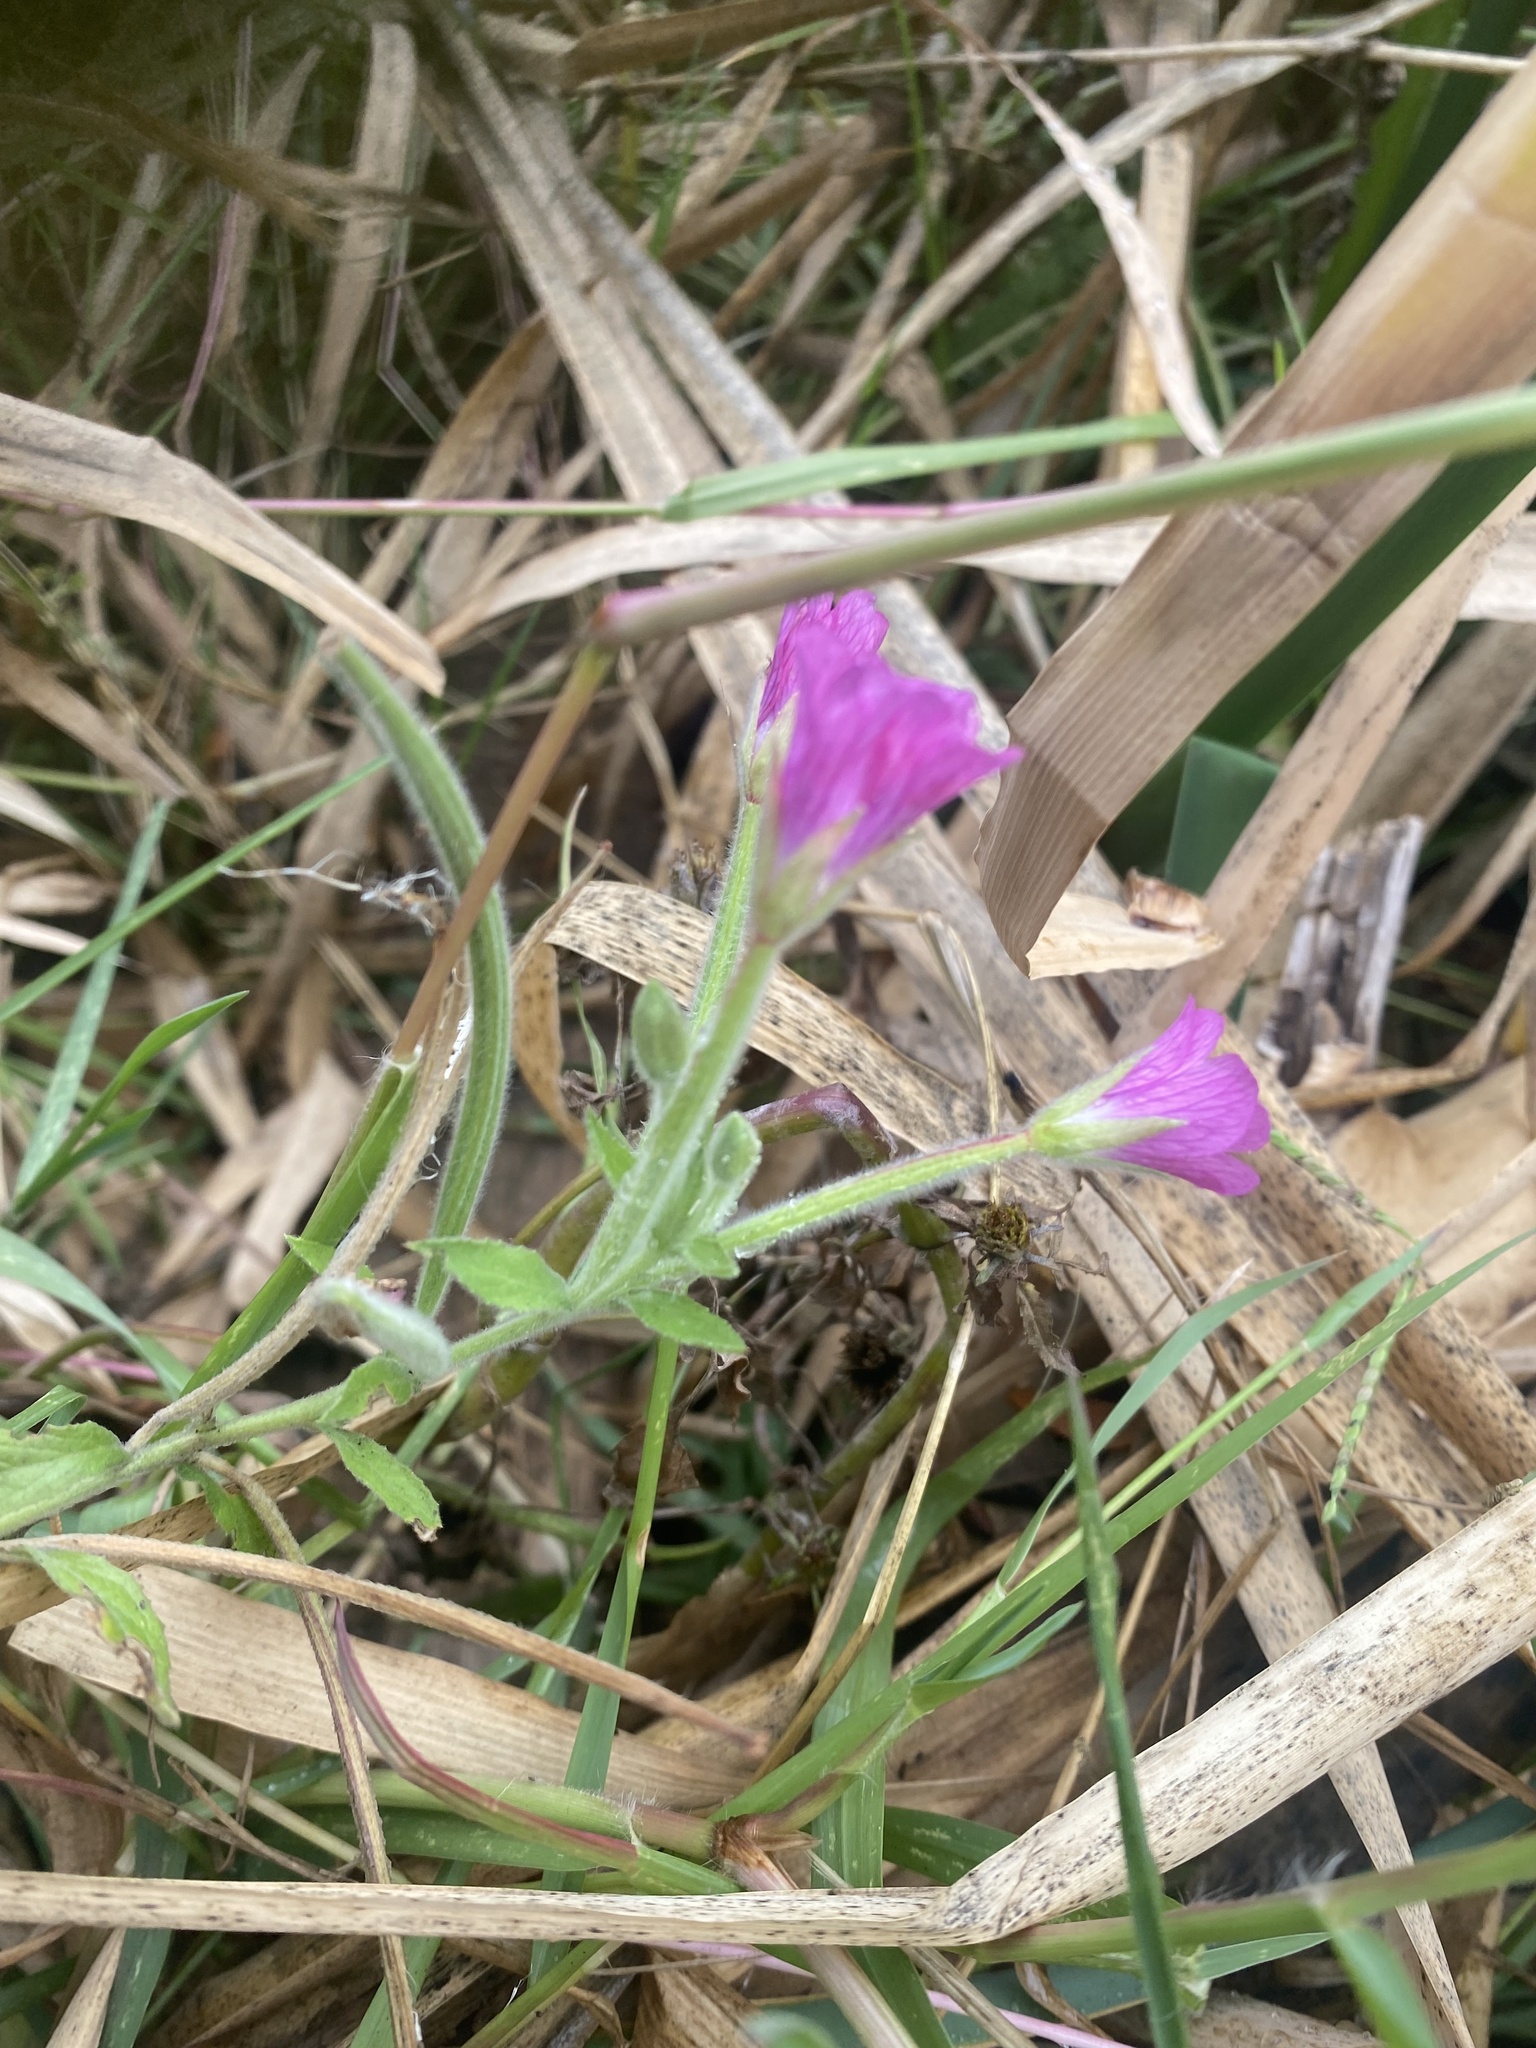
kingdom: Plantae
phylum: Tracheophyta
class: Magnoliopsida
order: Myrtales
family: Onagraceae
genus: Epilobium
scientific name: Epilobium hirsutum
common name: Great willowherb
